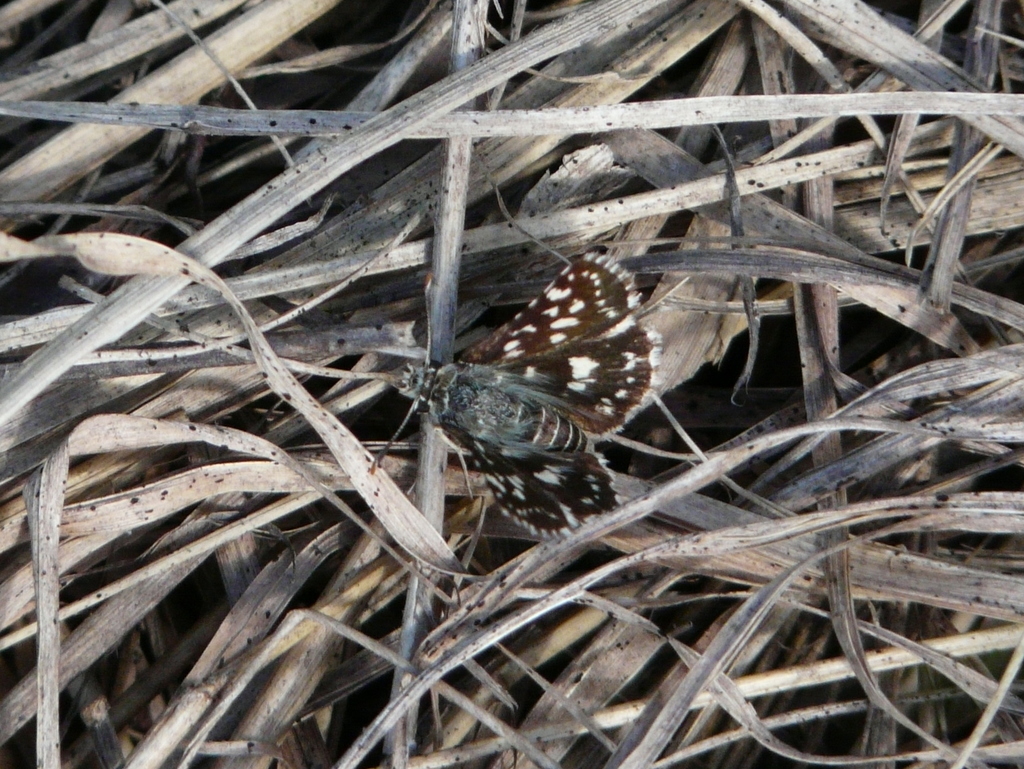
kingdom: Animalia
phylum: Arthropoda
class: Insecta
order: Lepidoptera
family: Hesperiidae
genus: Spialia
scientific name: Spialia mafa
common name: Mafa sandman
